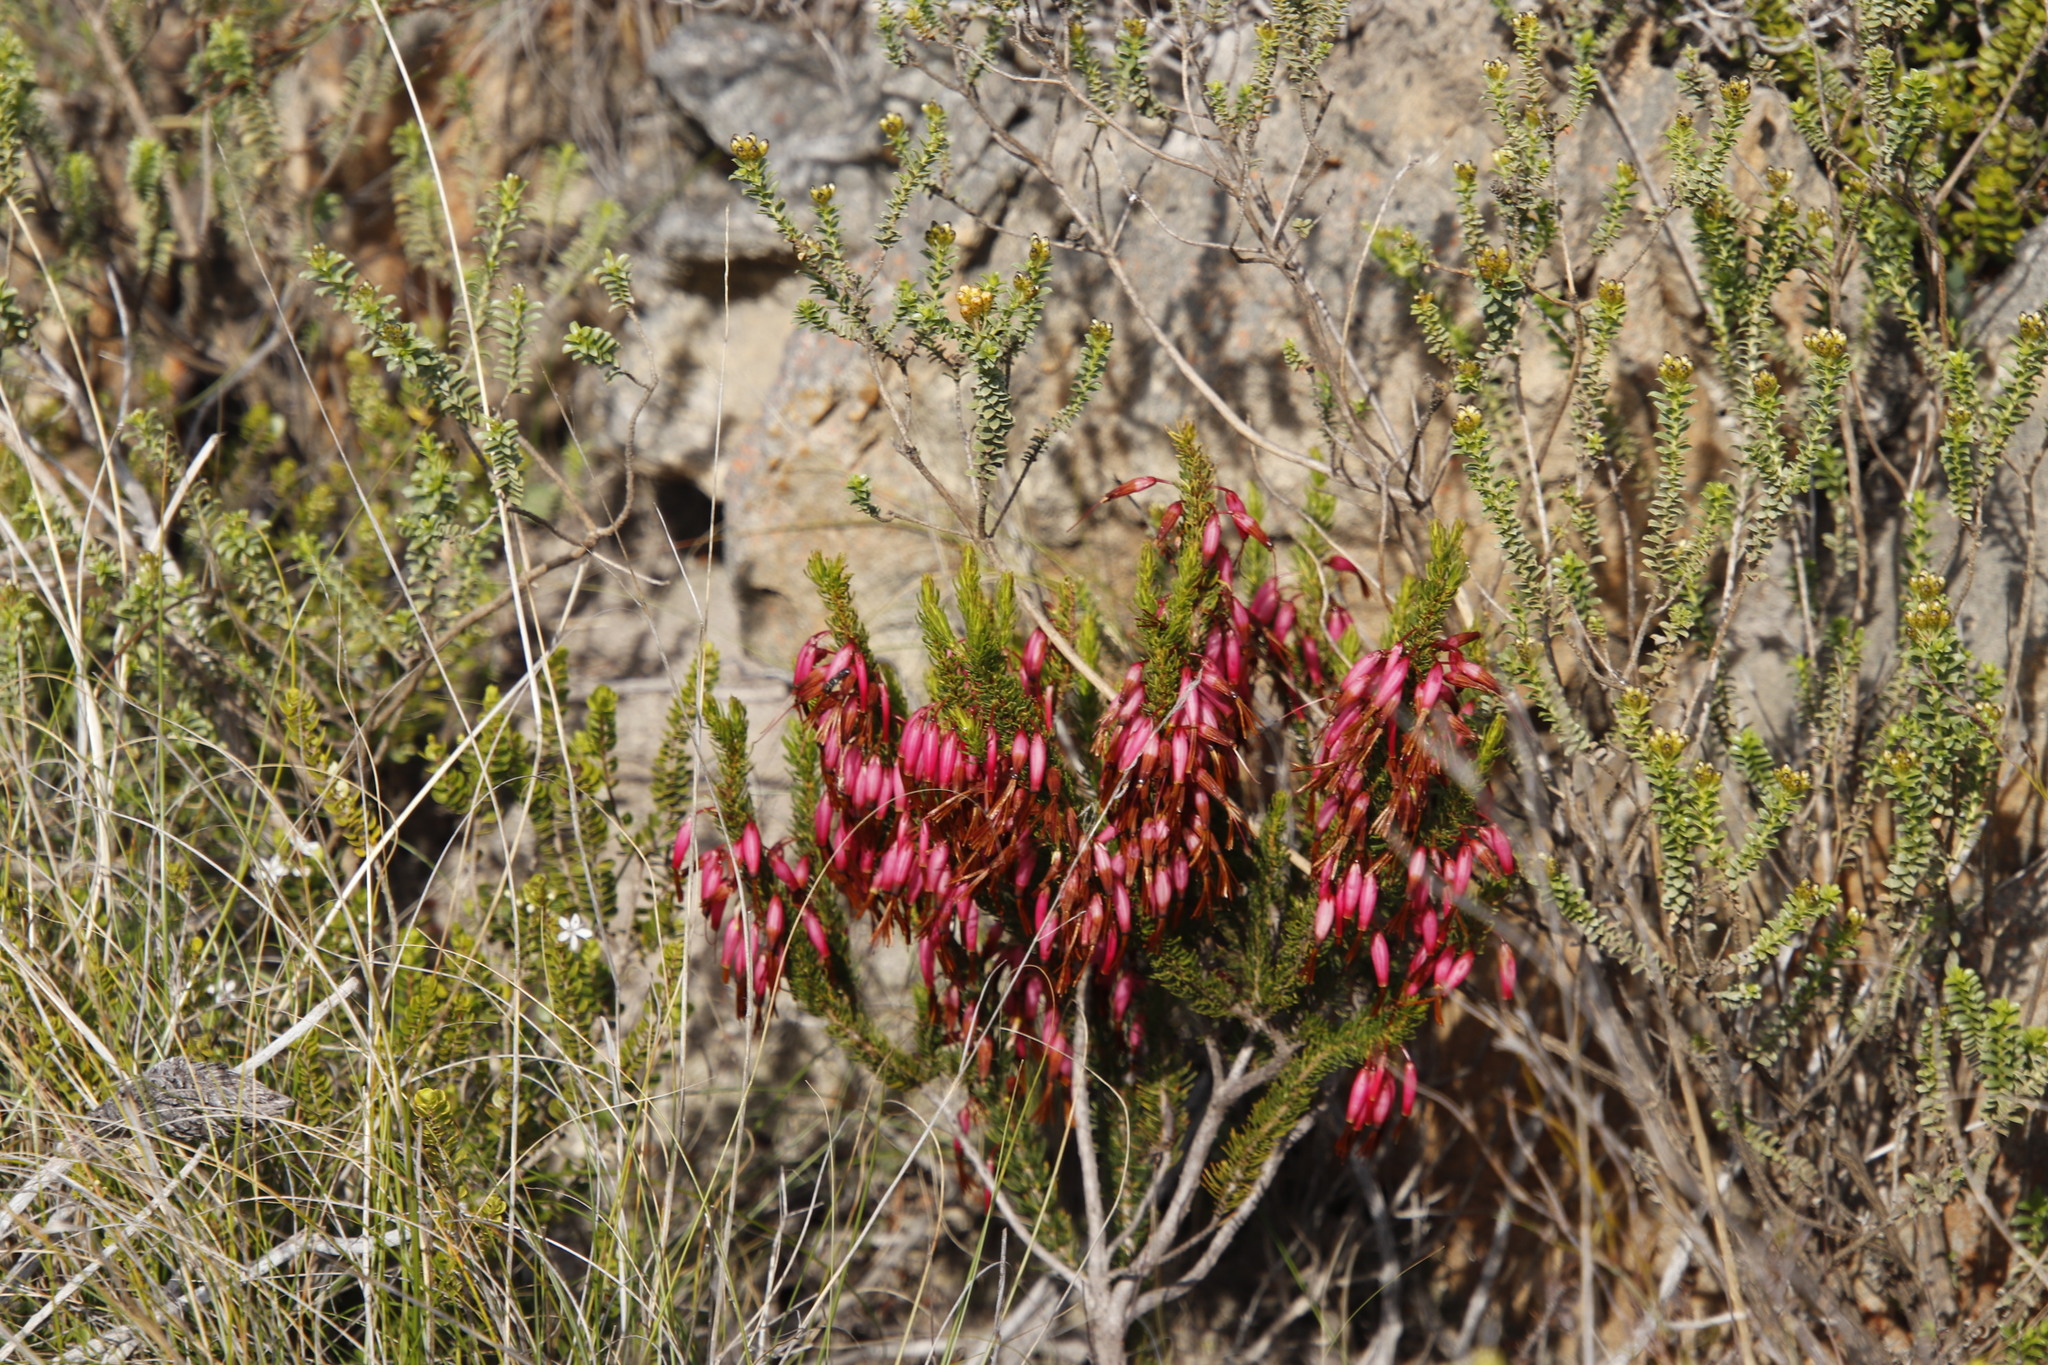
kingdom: Plantae
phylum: Tracheophyta
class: Magnoliopsida
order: Ericales
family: Ericaceae
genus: Erica
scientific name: Erica plukenetii
